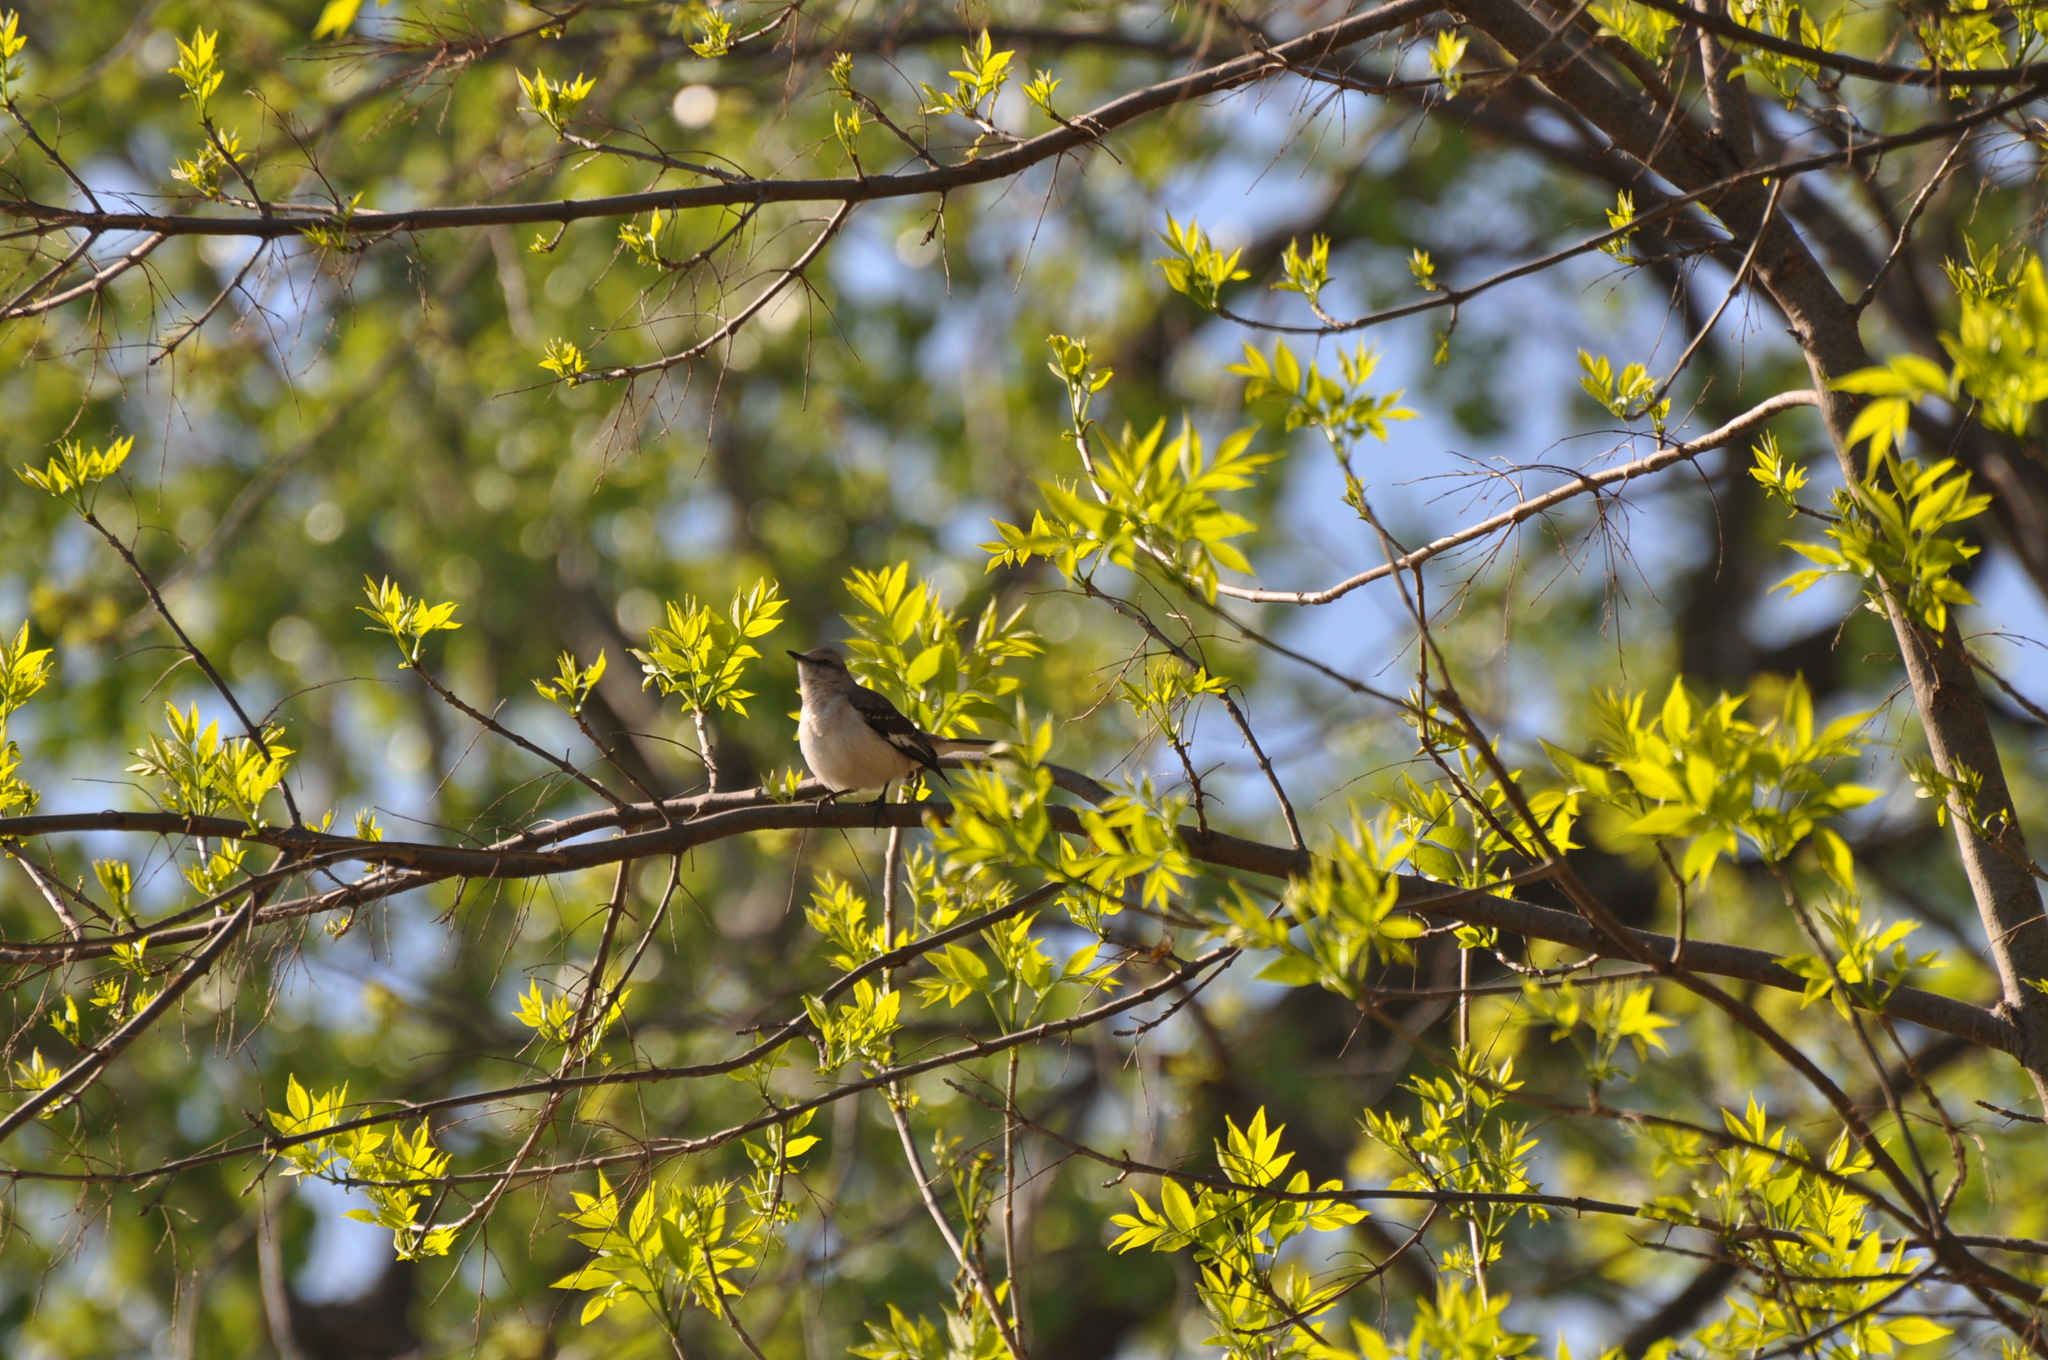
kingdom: Animalia
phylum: Chordata
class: Aves
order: Passeriformes
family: Mimidae
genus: Mimus
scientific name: Mimus polyglottos
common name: Northern mockingbird
